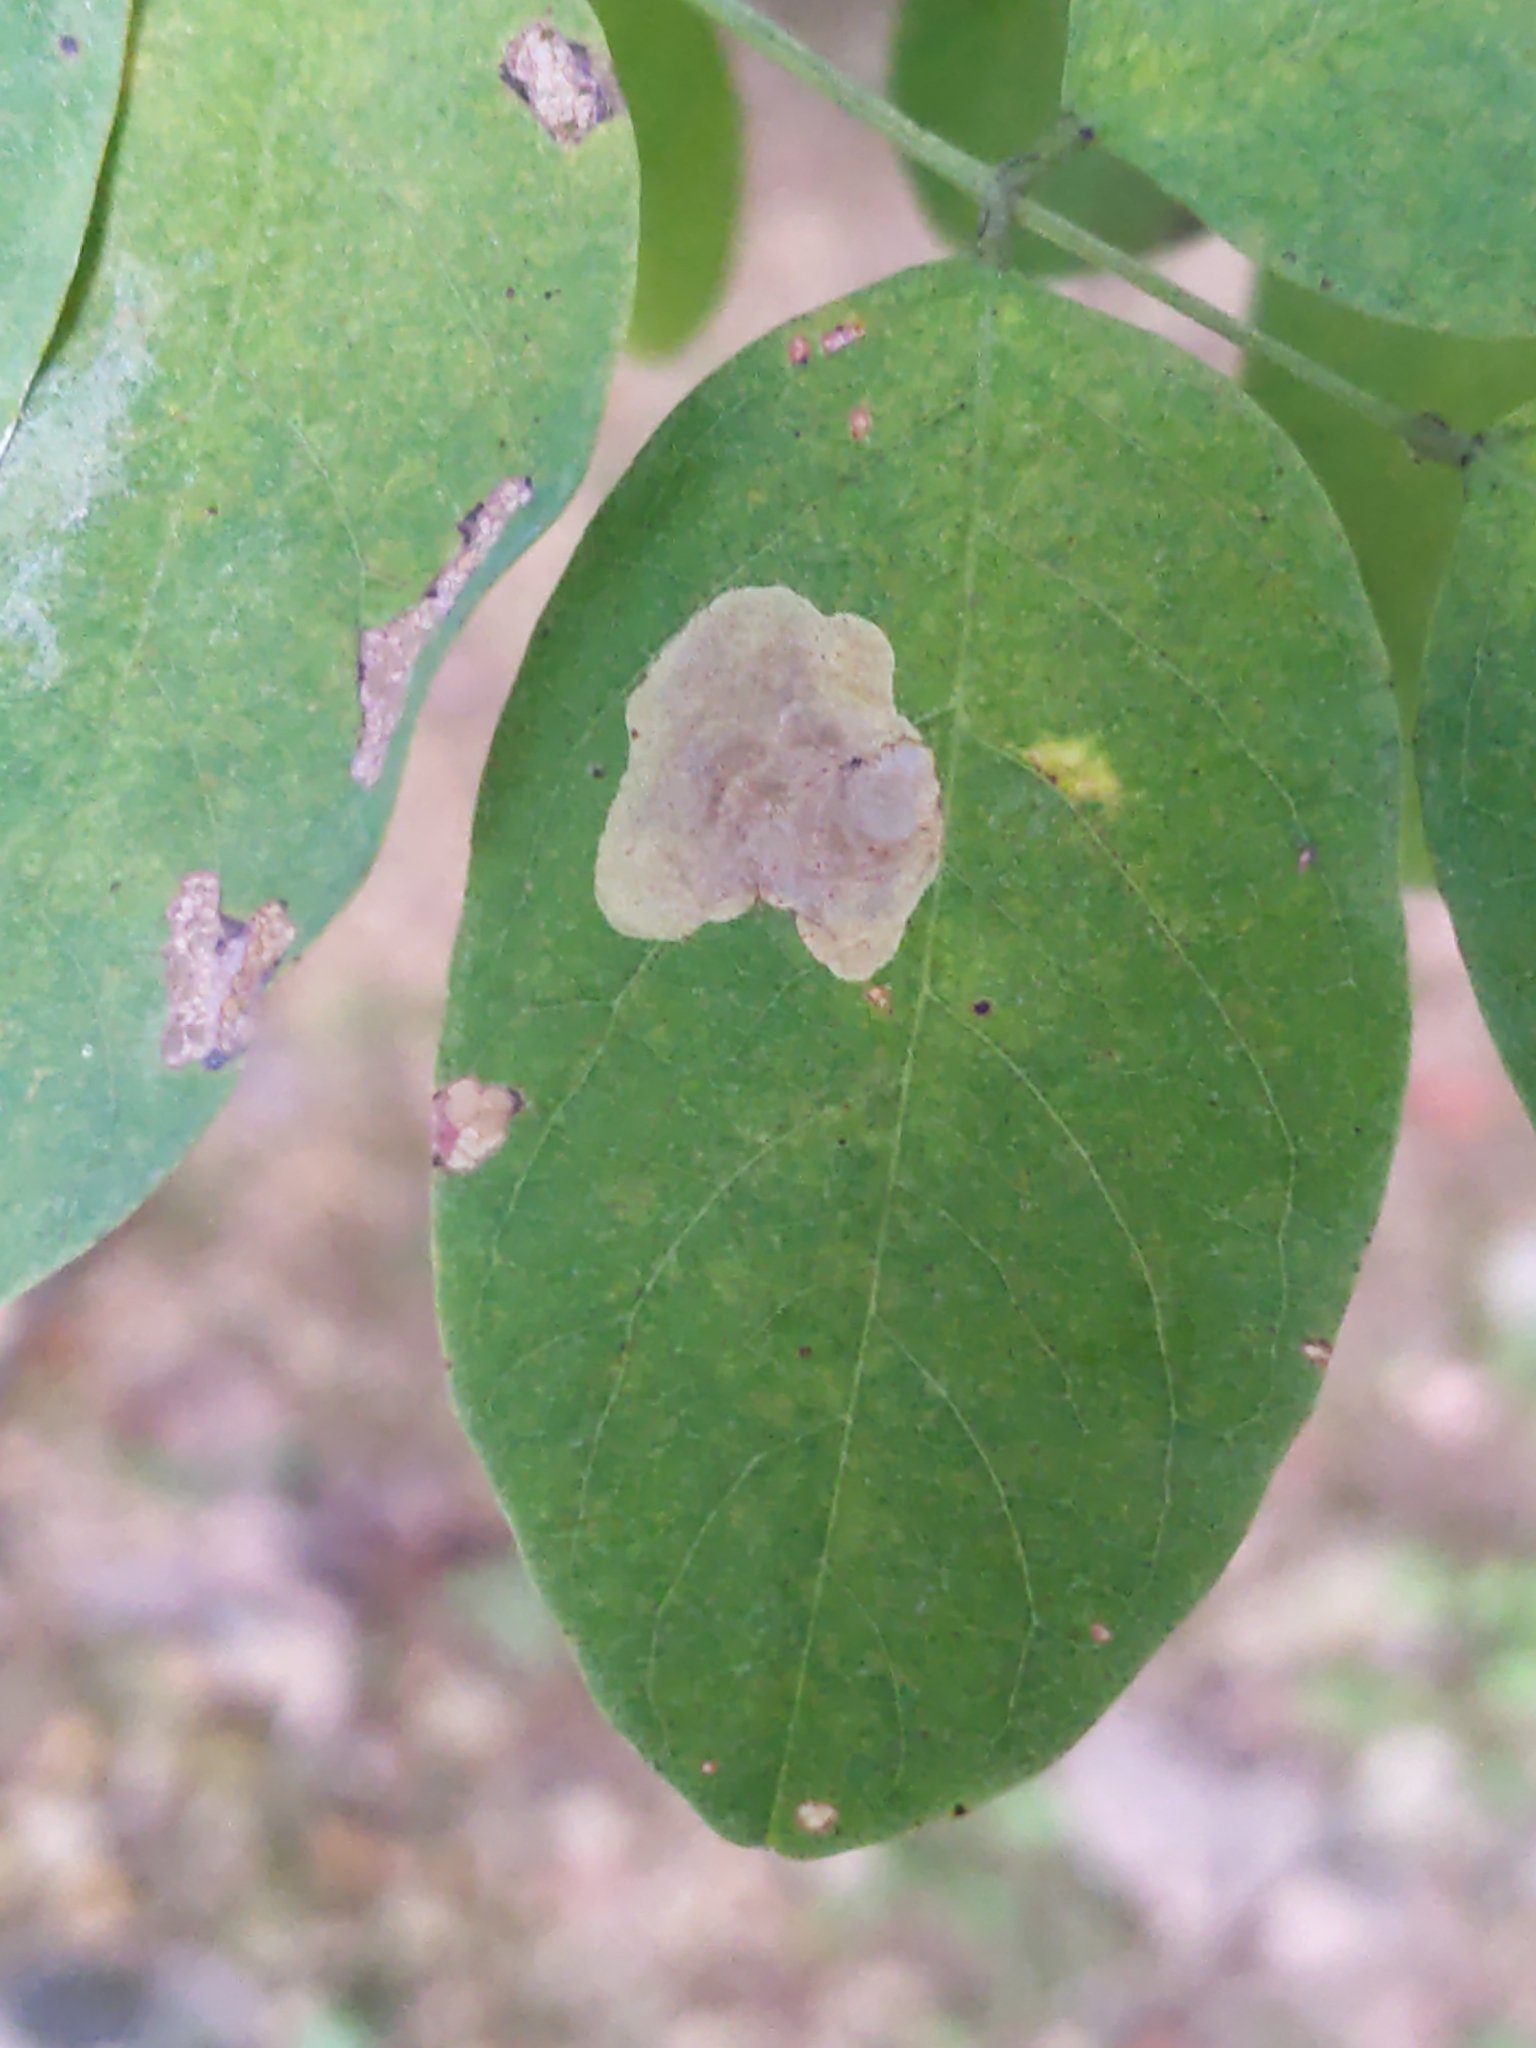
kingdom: Animalia
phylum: Arthropoda
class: Insecta
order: Lepidoptera
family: Gracillariidae
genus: Chrysaster
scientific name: Chrysaster ostensackenella
